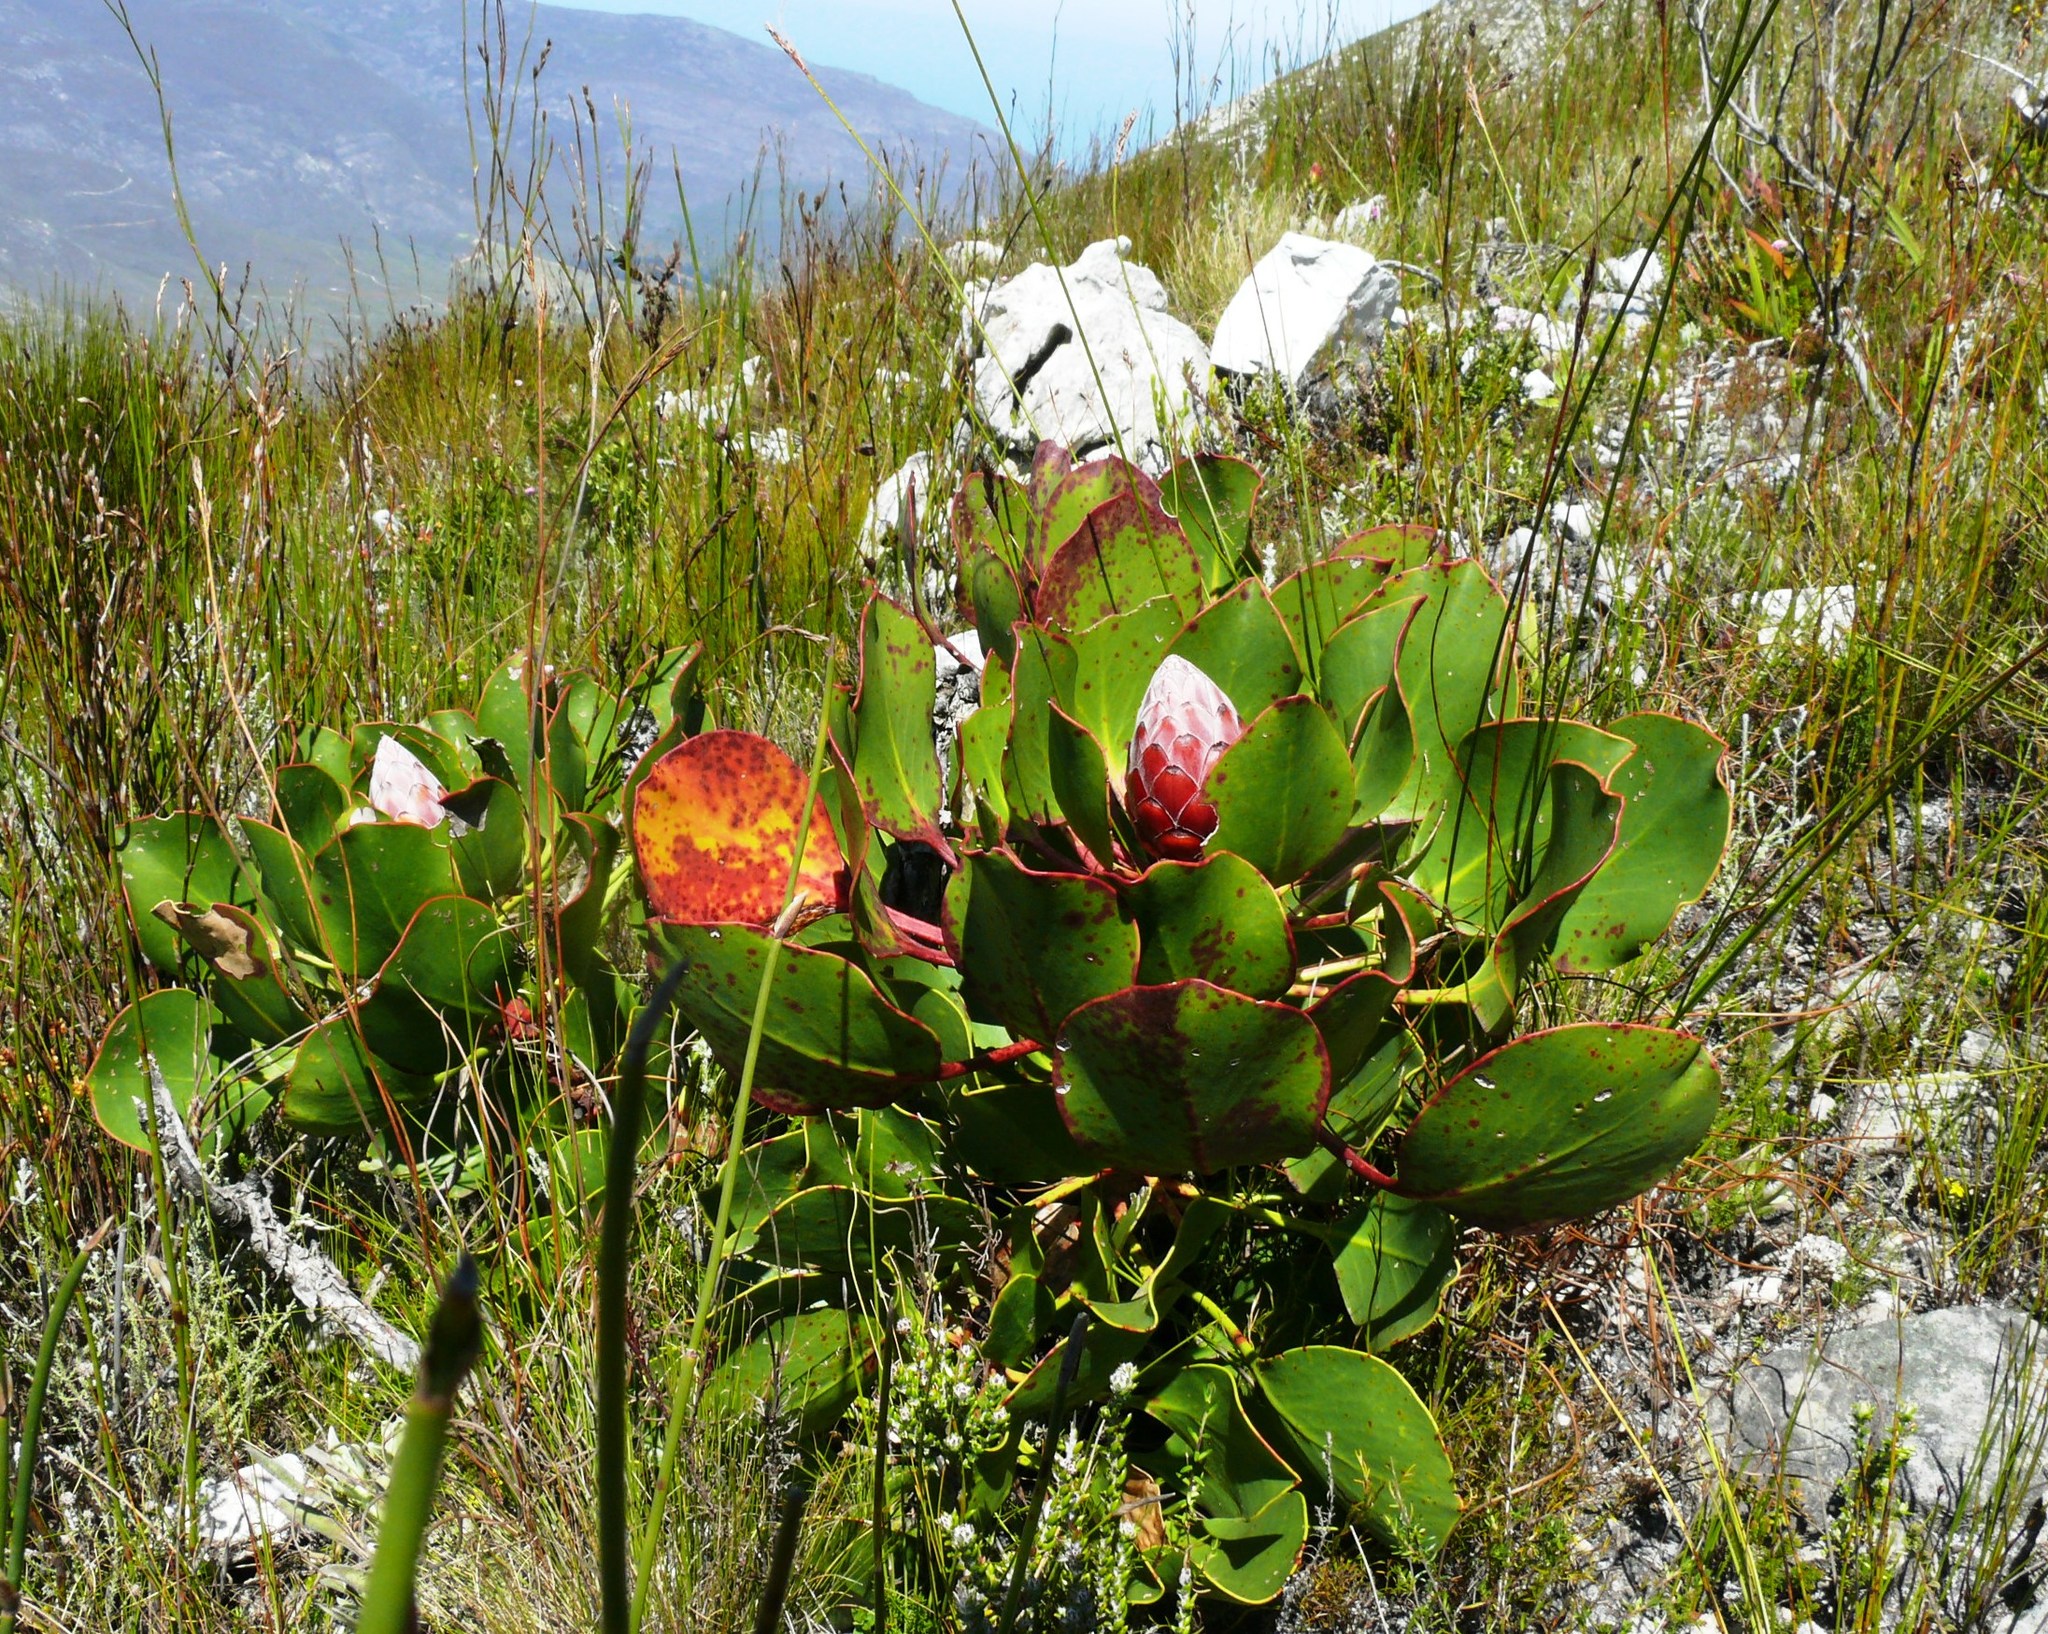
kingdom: Plantae
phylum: Tracheophyta
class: Magnoliopsida
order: Proteales
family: Proteaceae
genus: Protea
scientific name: Protea cynaroides
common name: King protea
